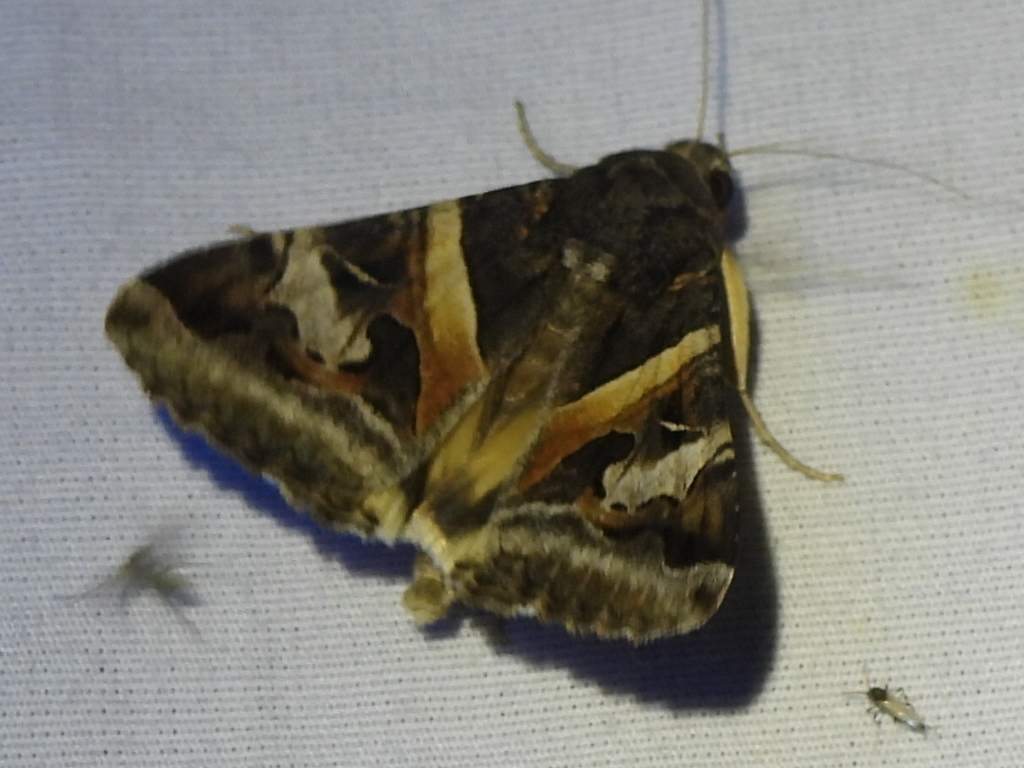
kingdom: Animalia
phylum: Arthropoda
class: Insecta
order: Lepidoptera
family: Erebidae
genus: Melipotis
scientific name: Melipotis indomita
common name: Moth
